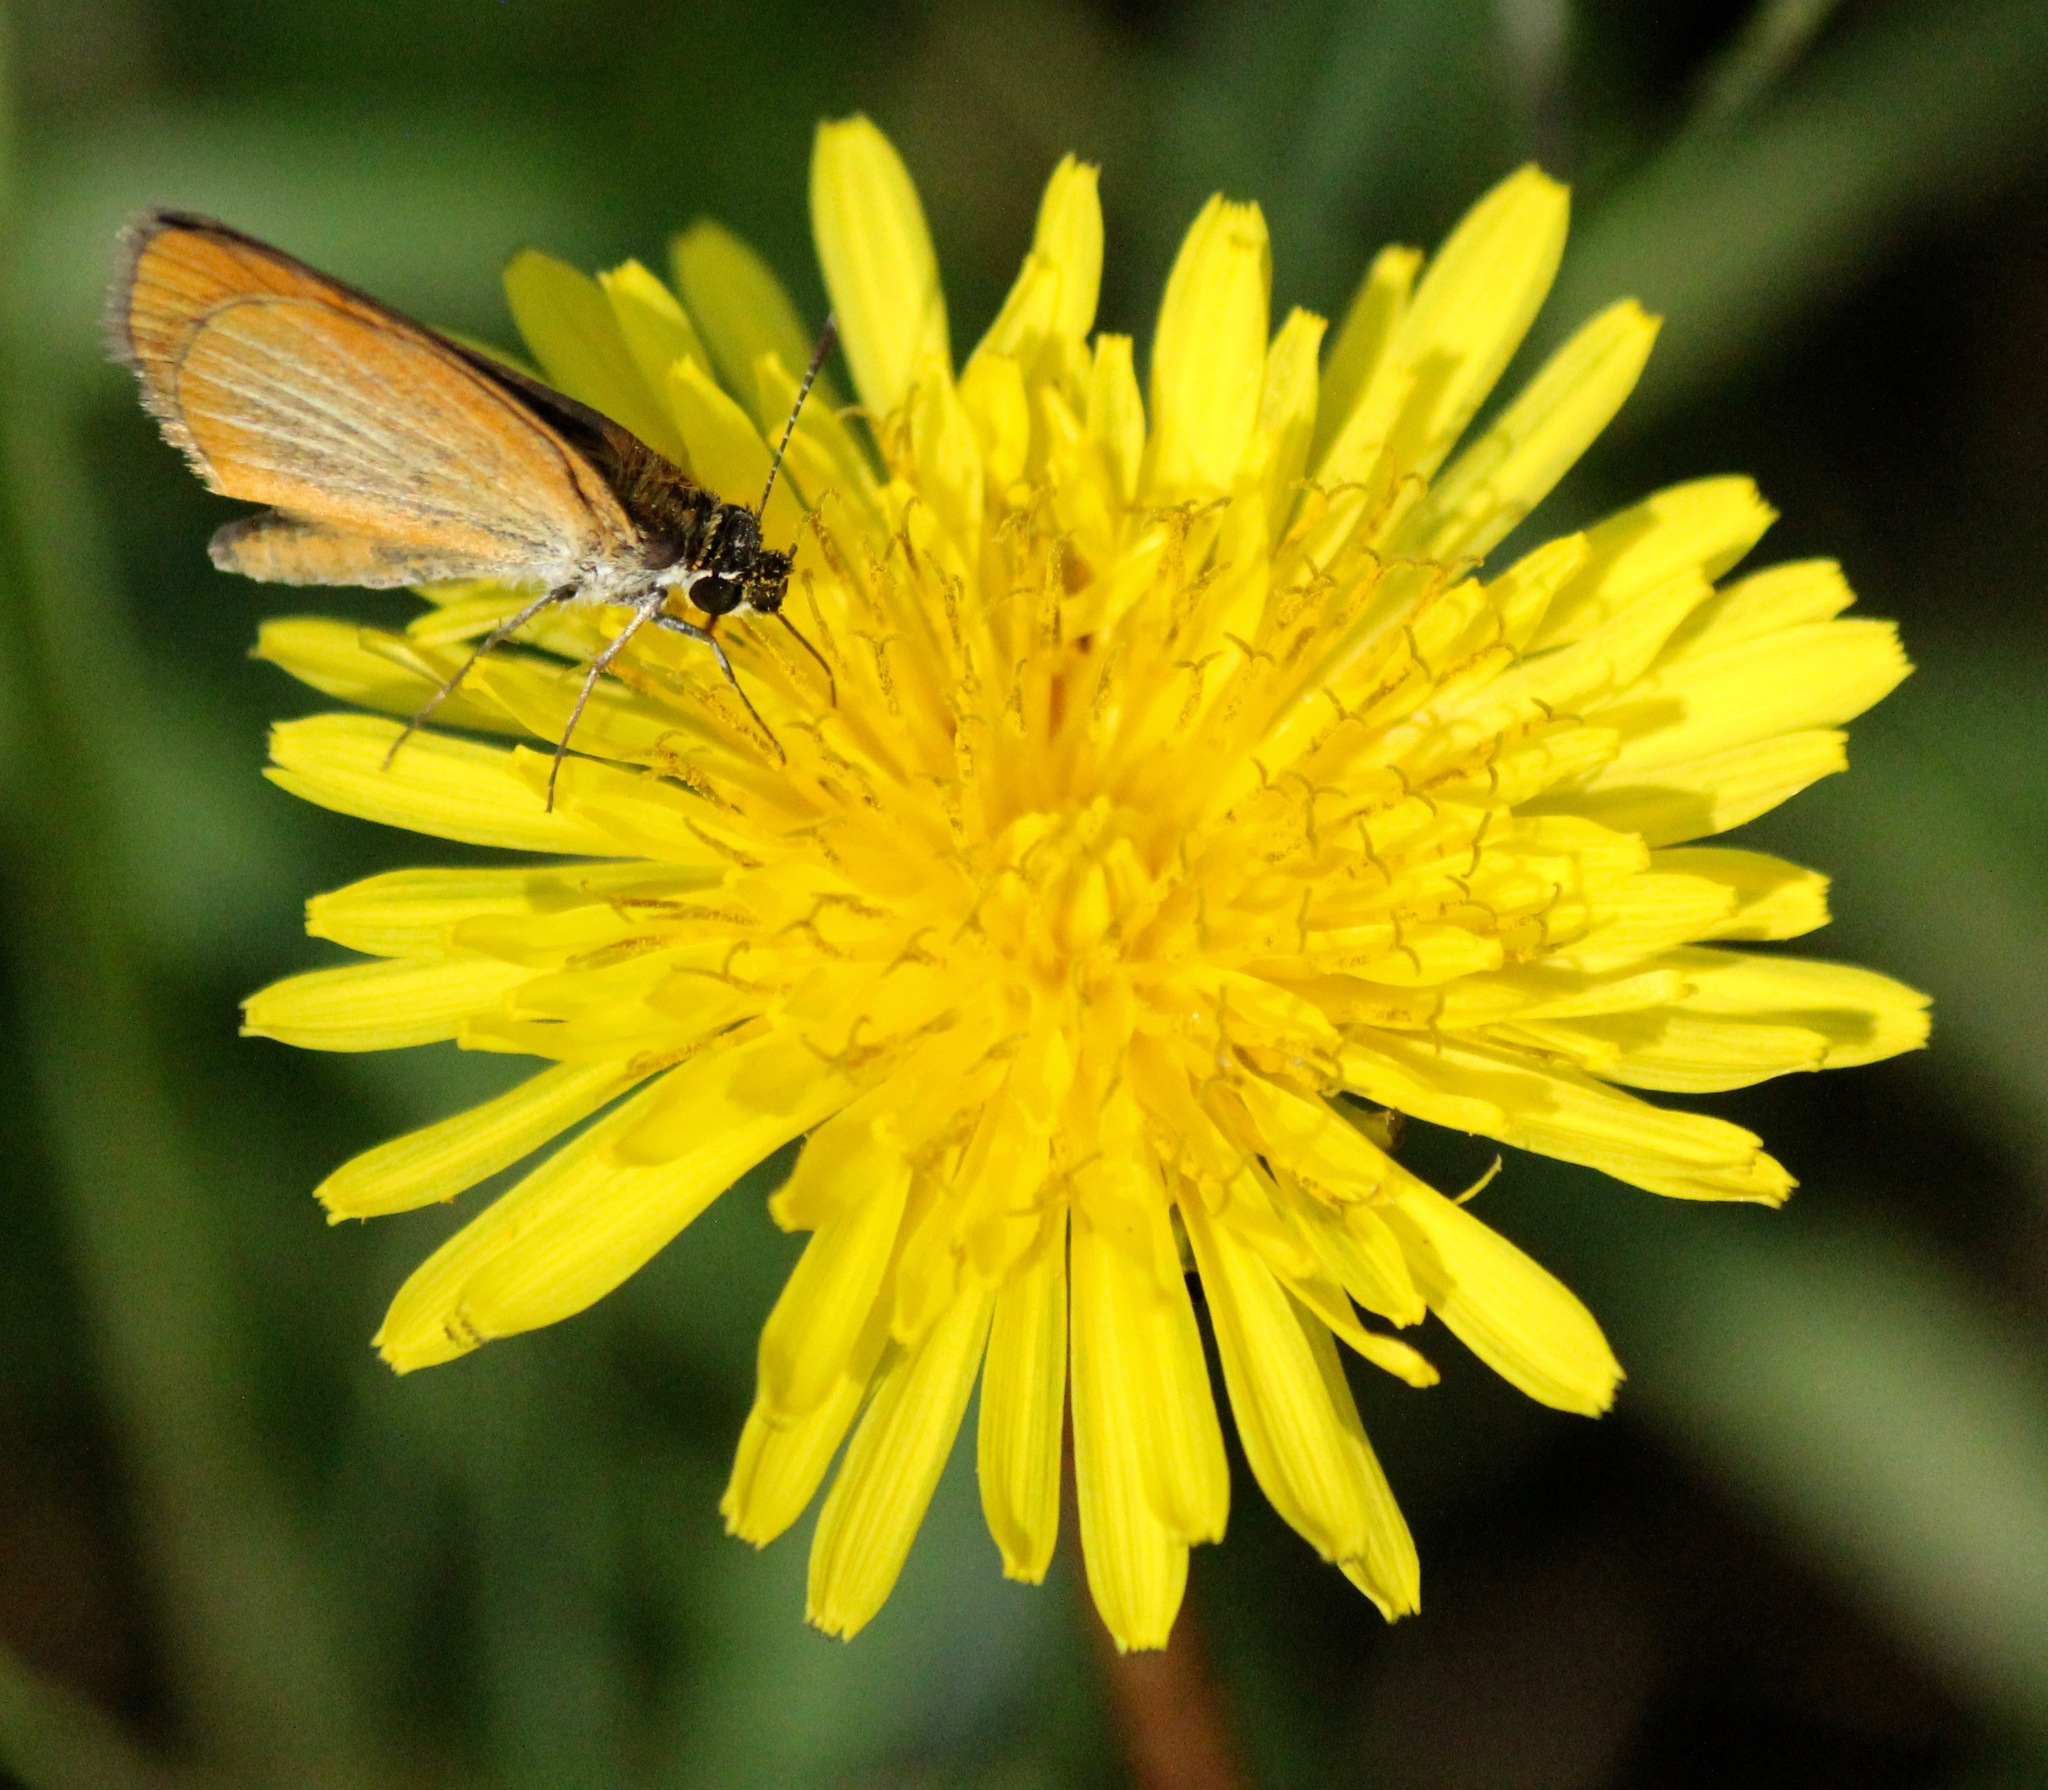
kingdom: Animalia
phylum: Arthropoda
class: Insecta
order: Lepidoptera
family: Hesperiidae
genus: Ancyloxypha
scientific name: Ancyloxypha numitor
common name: Least skipper
